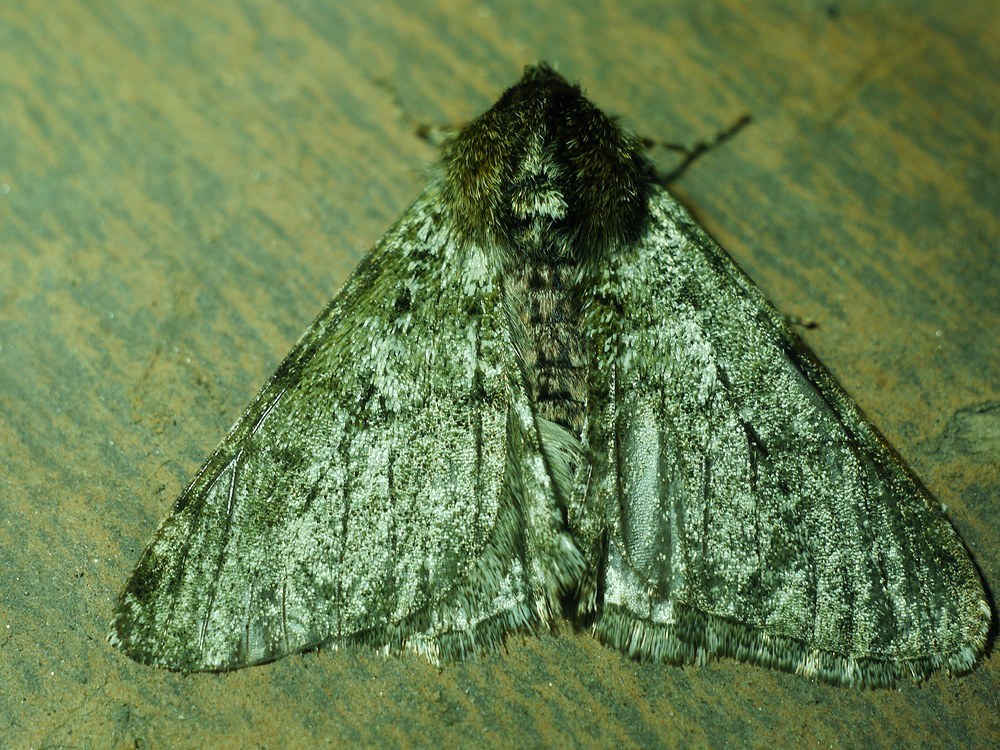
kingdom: Animalia
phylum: Arthropoda
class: Insecta
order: Lepidoptera
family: Geometridae
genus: Phigalia
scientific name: Phigalia pilosaria
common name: Pale brindled beauty
